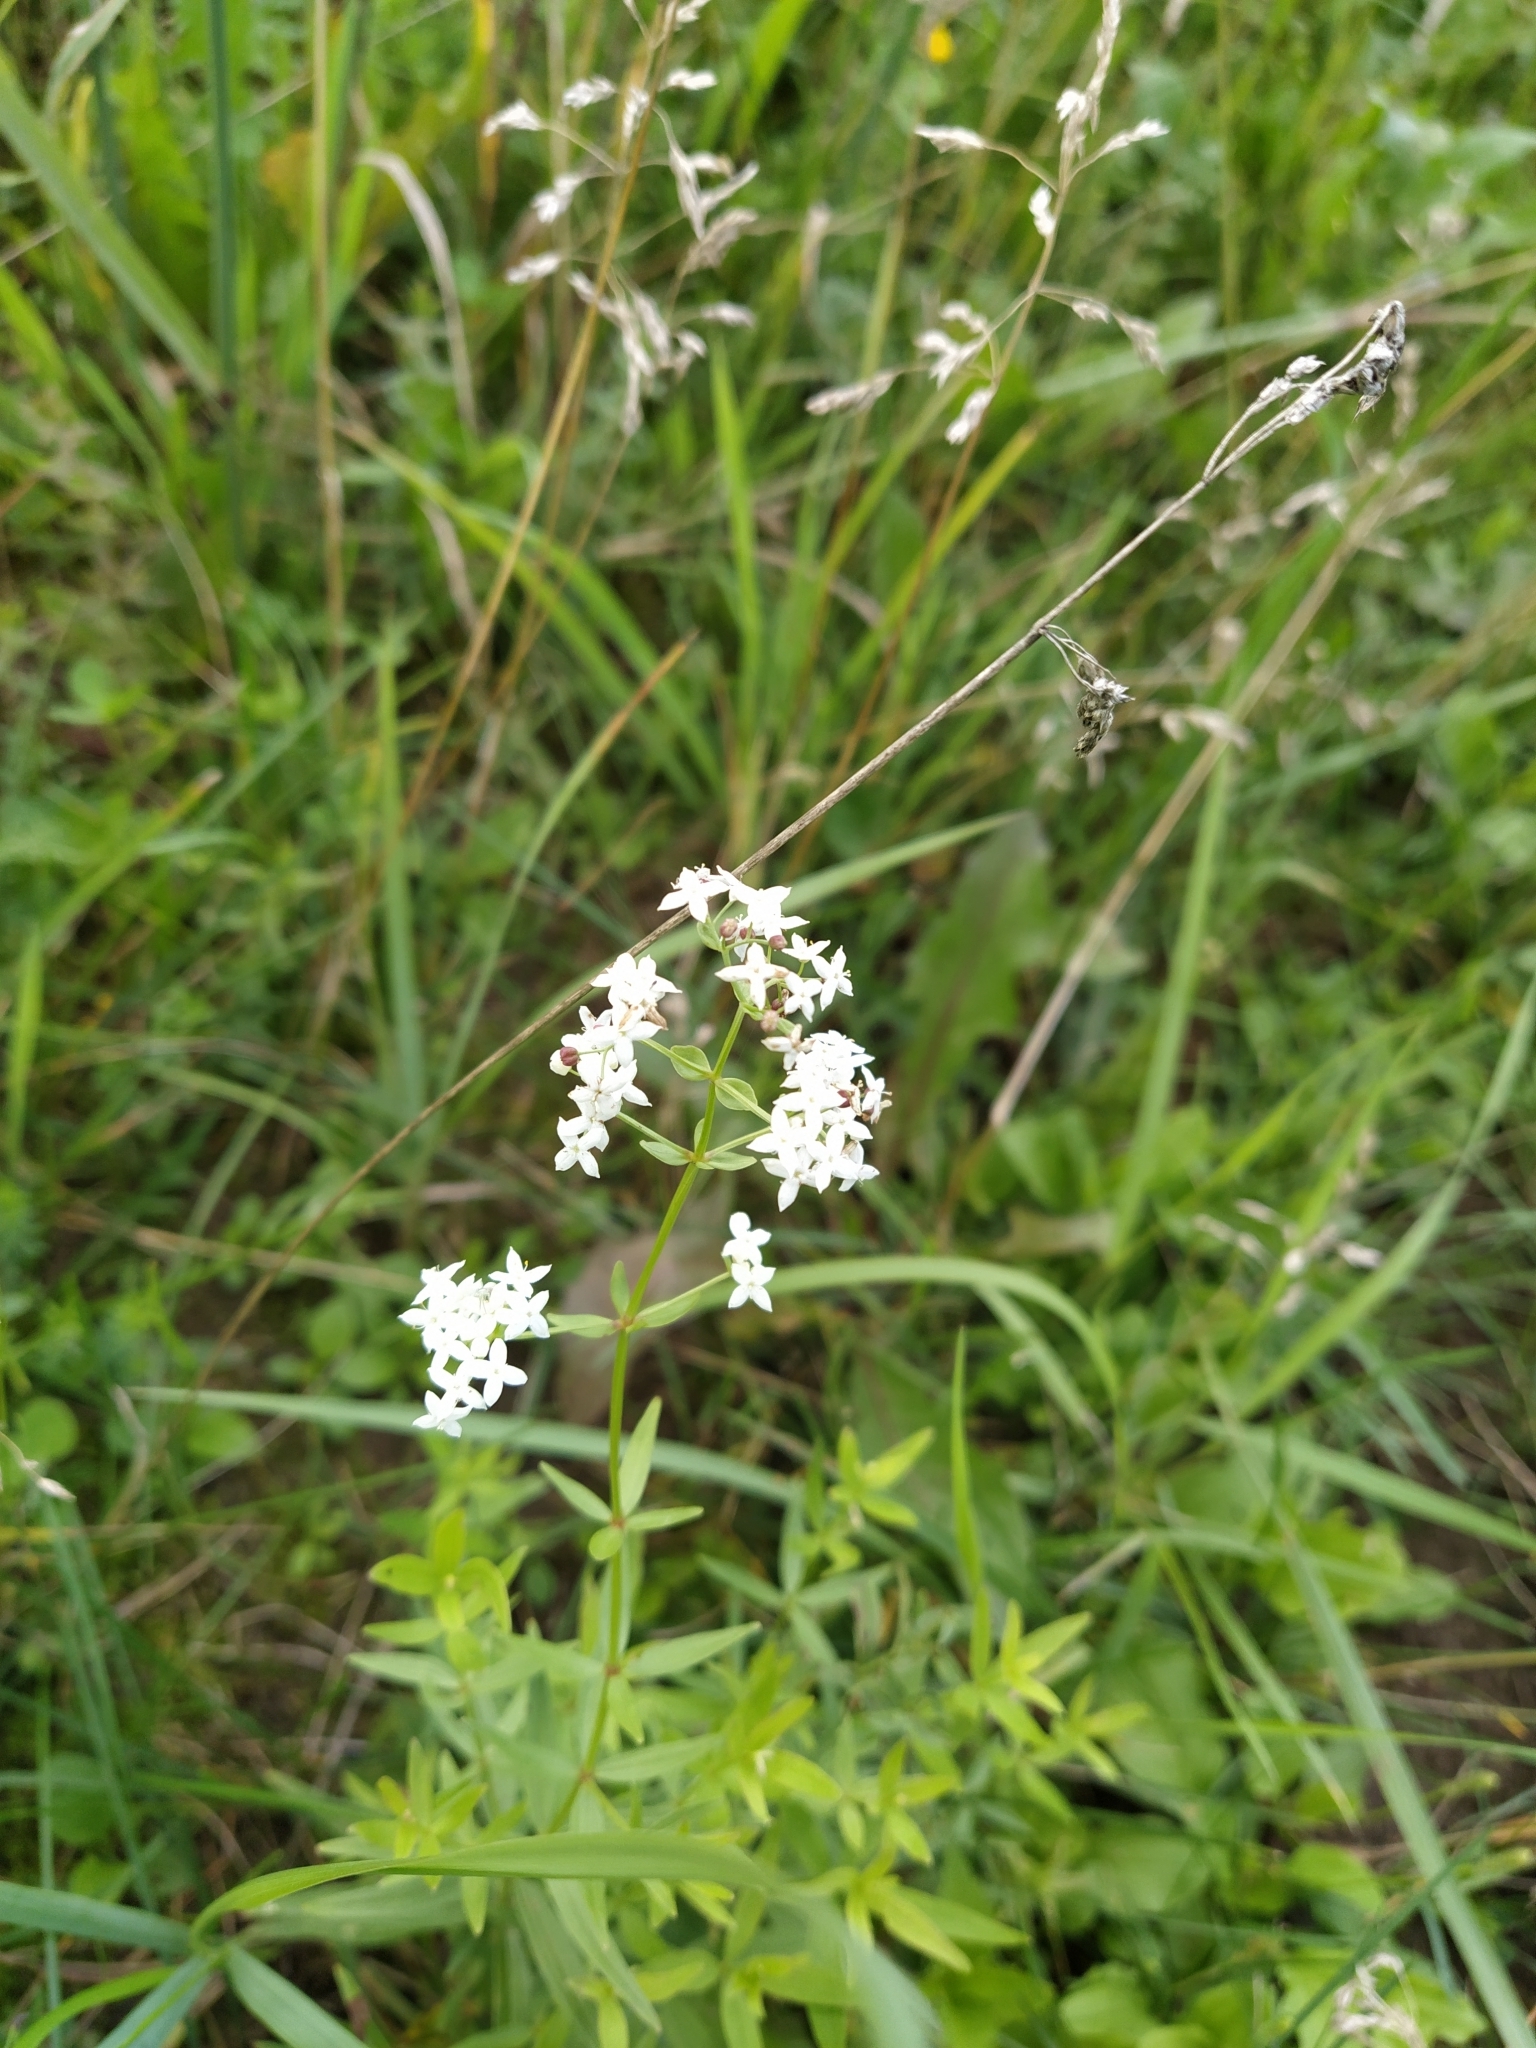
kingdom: Plantae
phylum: Tracheophyta
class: Magnoliopsida
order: Gentianales
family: Rubiaceae
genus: Galium
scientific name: Galium boreale
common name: Northern bedstraw
